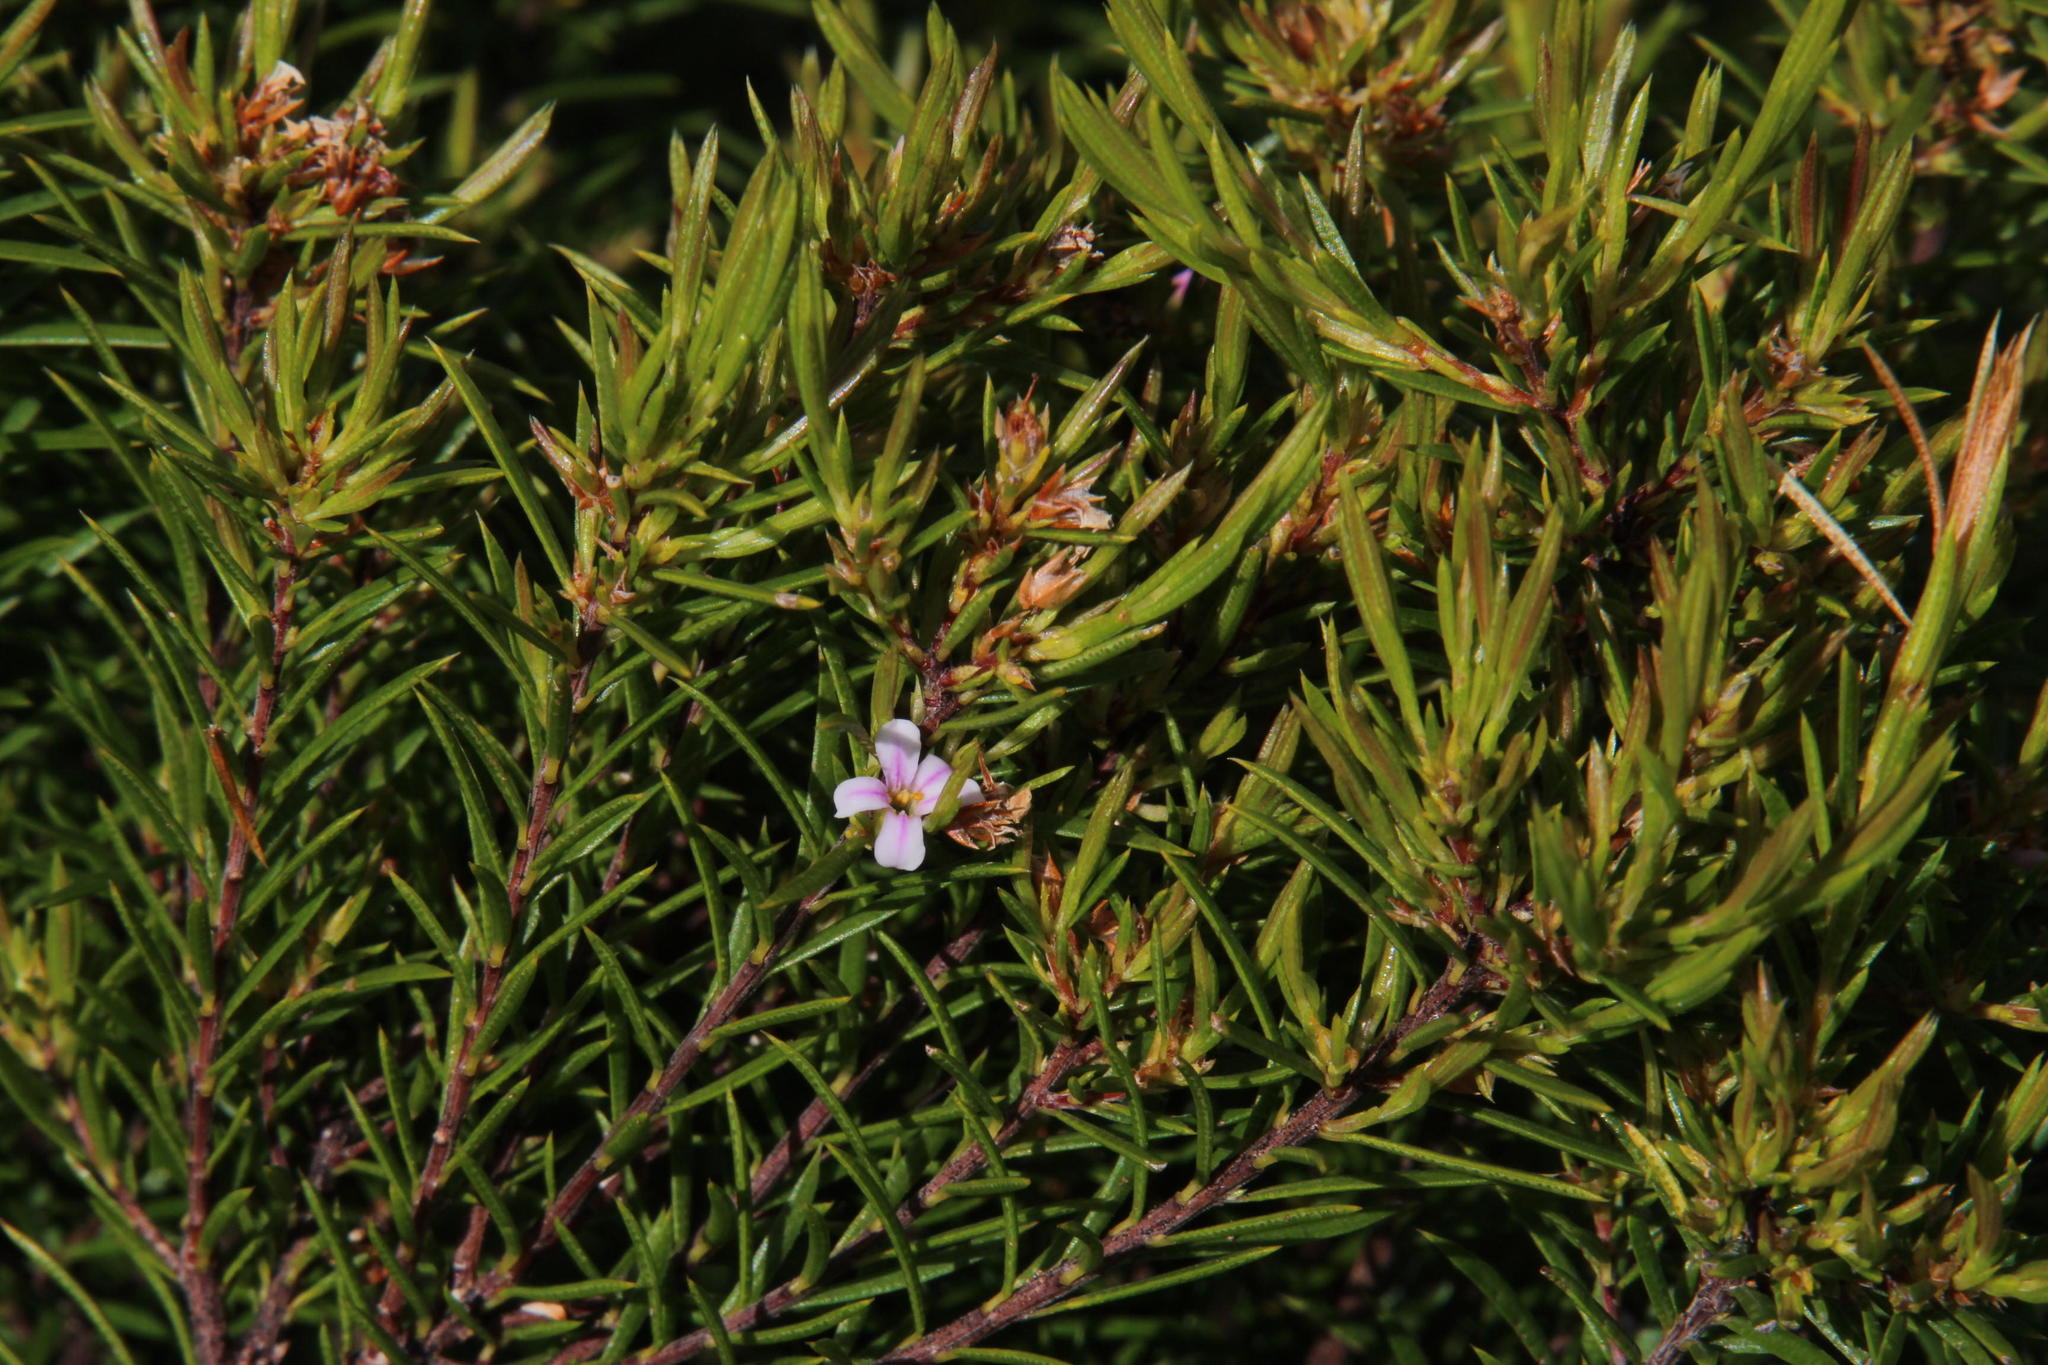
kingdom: Plantae
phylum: Tracheophyta
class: Magnoliopsida
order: Sapindales
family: Rutaceae
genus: Coleonema
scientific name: Coleonema album
